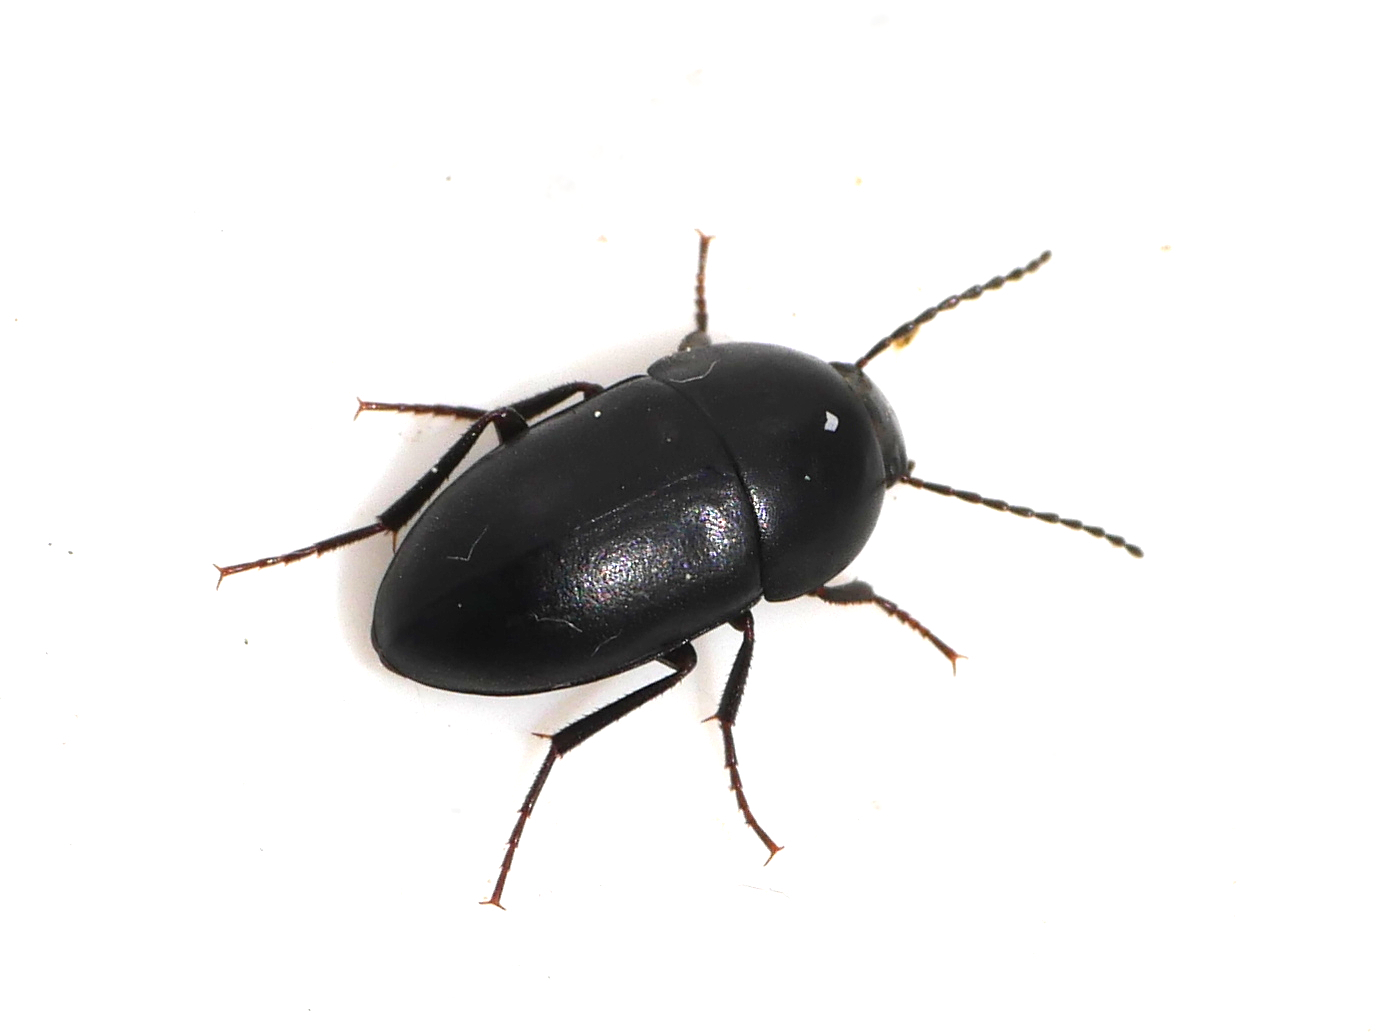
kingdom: Animalia
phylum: Arthropoda
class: Insecta
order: Coleoptera
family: Tenebrionidae
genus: Crypticus
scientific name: Crypticus quisquilius
